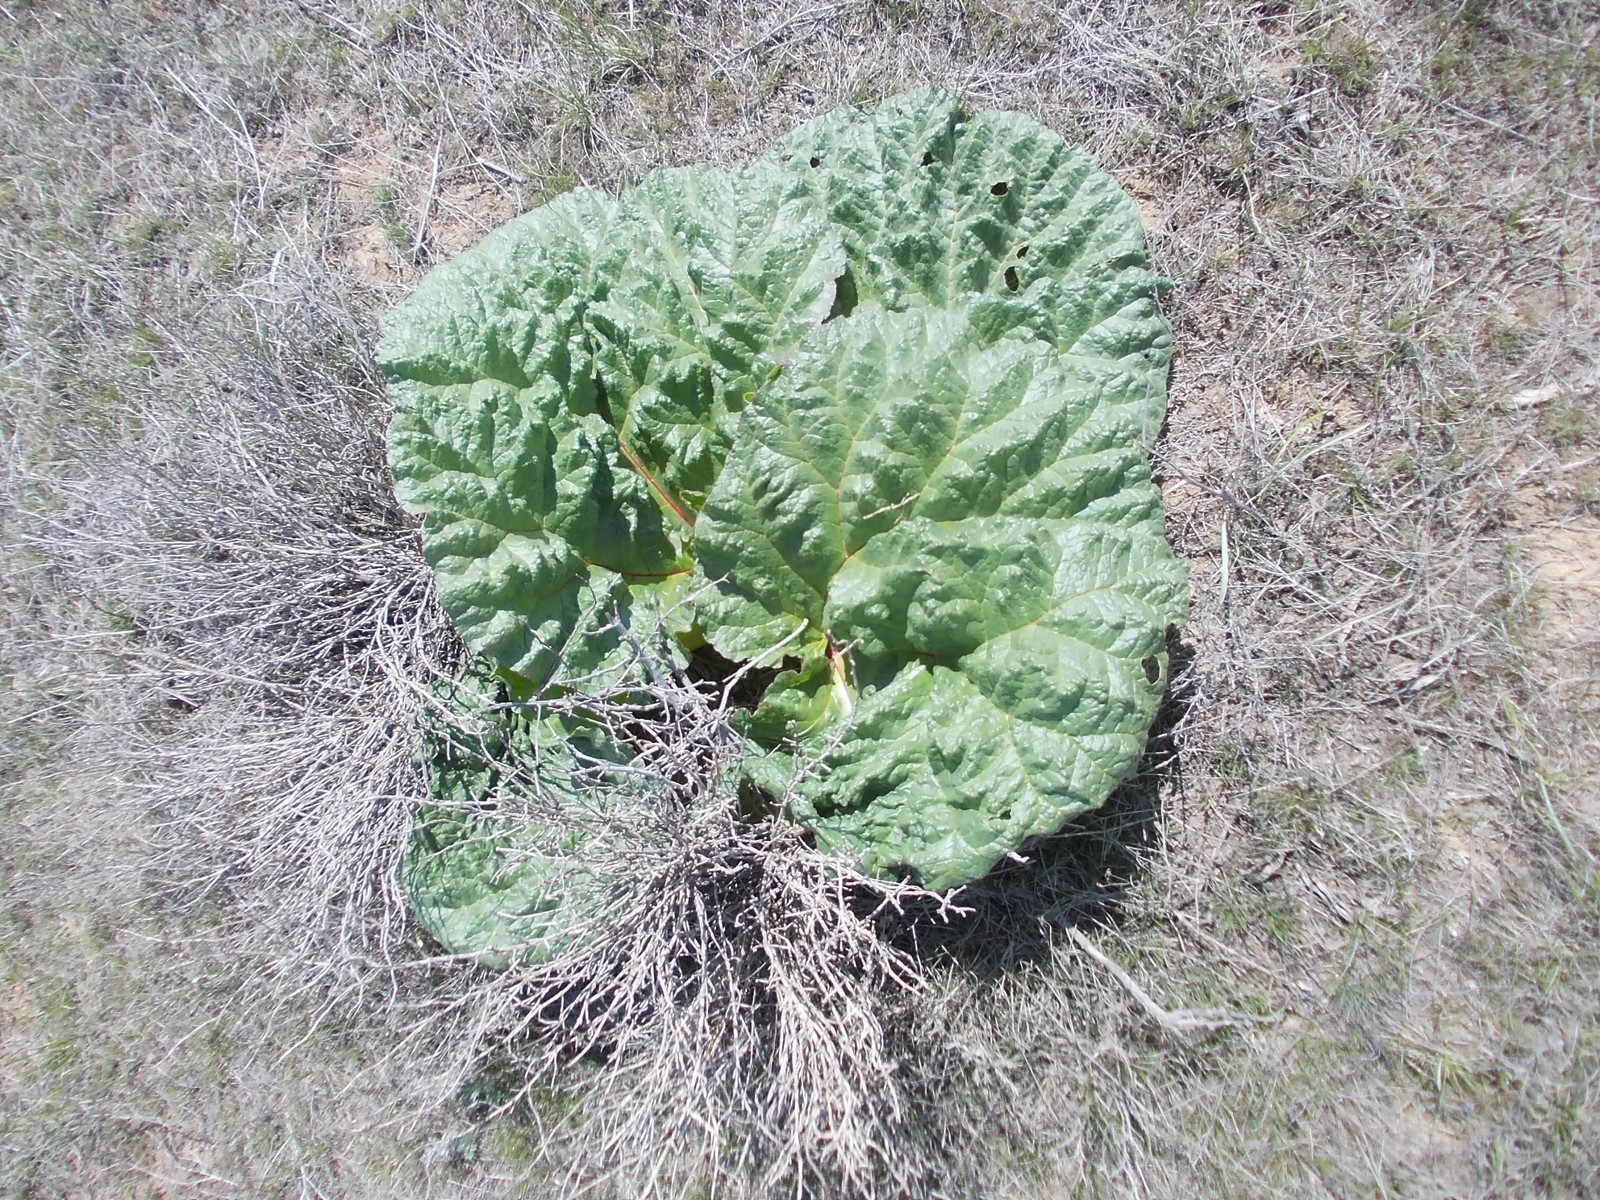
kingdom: Plantae
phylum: Tracheophyta
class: Magnoliopsida
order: Caryophyllales
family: Polygonaceae
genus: Rheum
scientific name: Rheum tataricum
